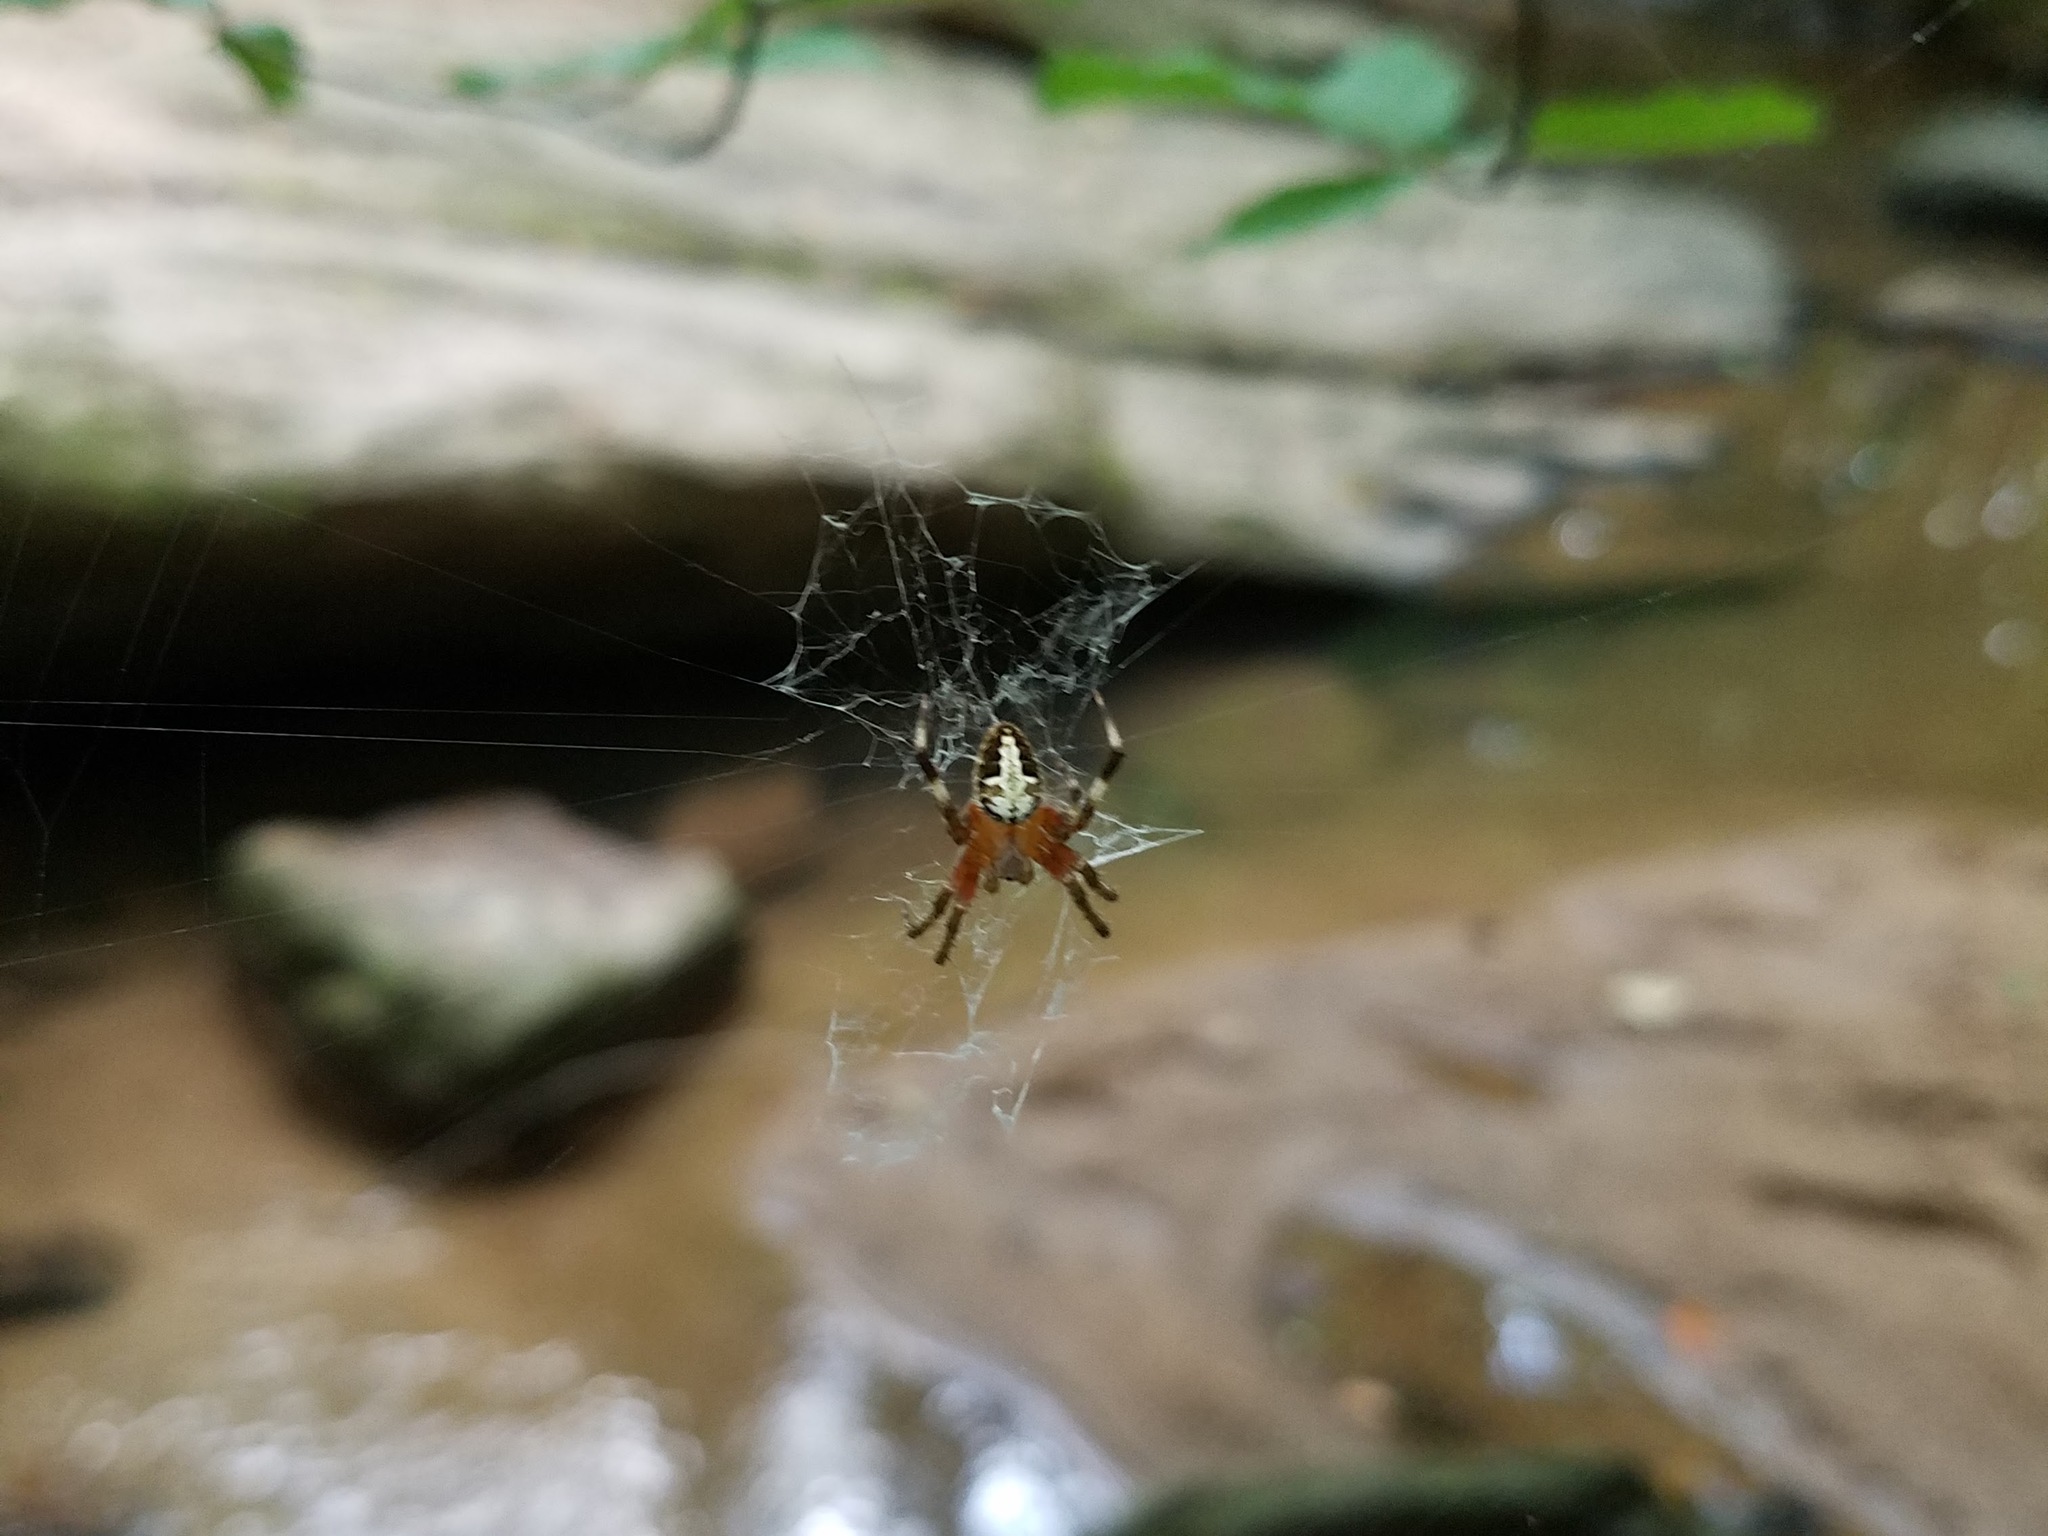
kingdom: Animalia
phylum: Arthropoda
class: Arachnida
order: Araneae
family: Araneidae
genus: Neoscona
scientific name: Neoscona domiciliorum
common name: Red-femured spotted orbweaver
